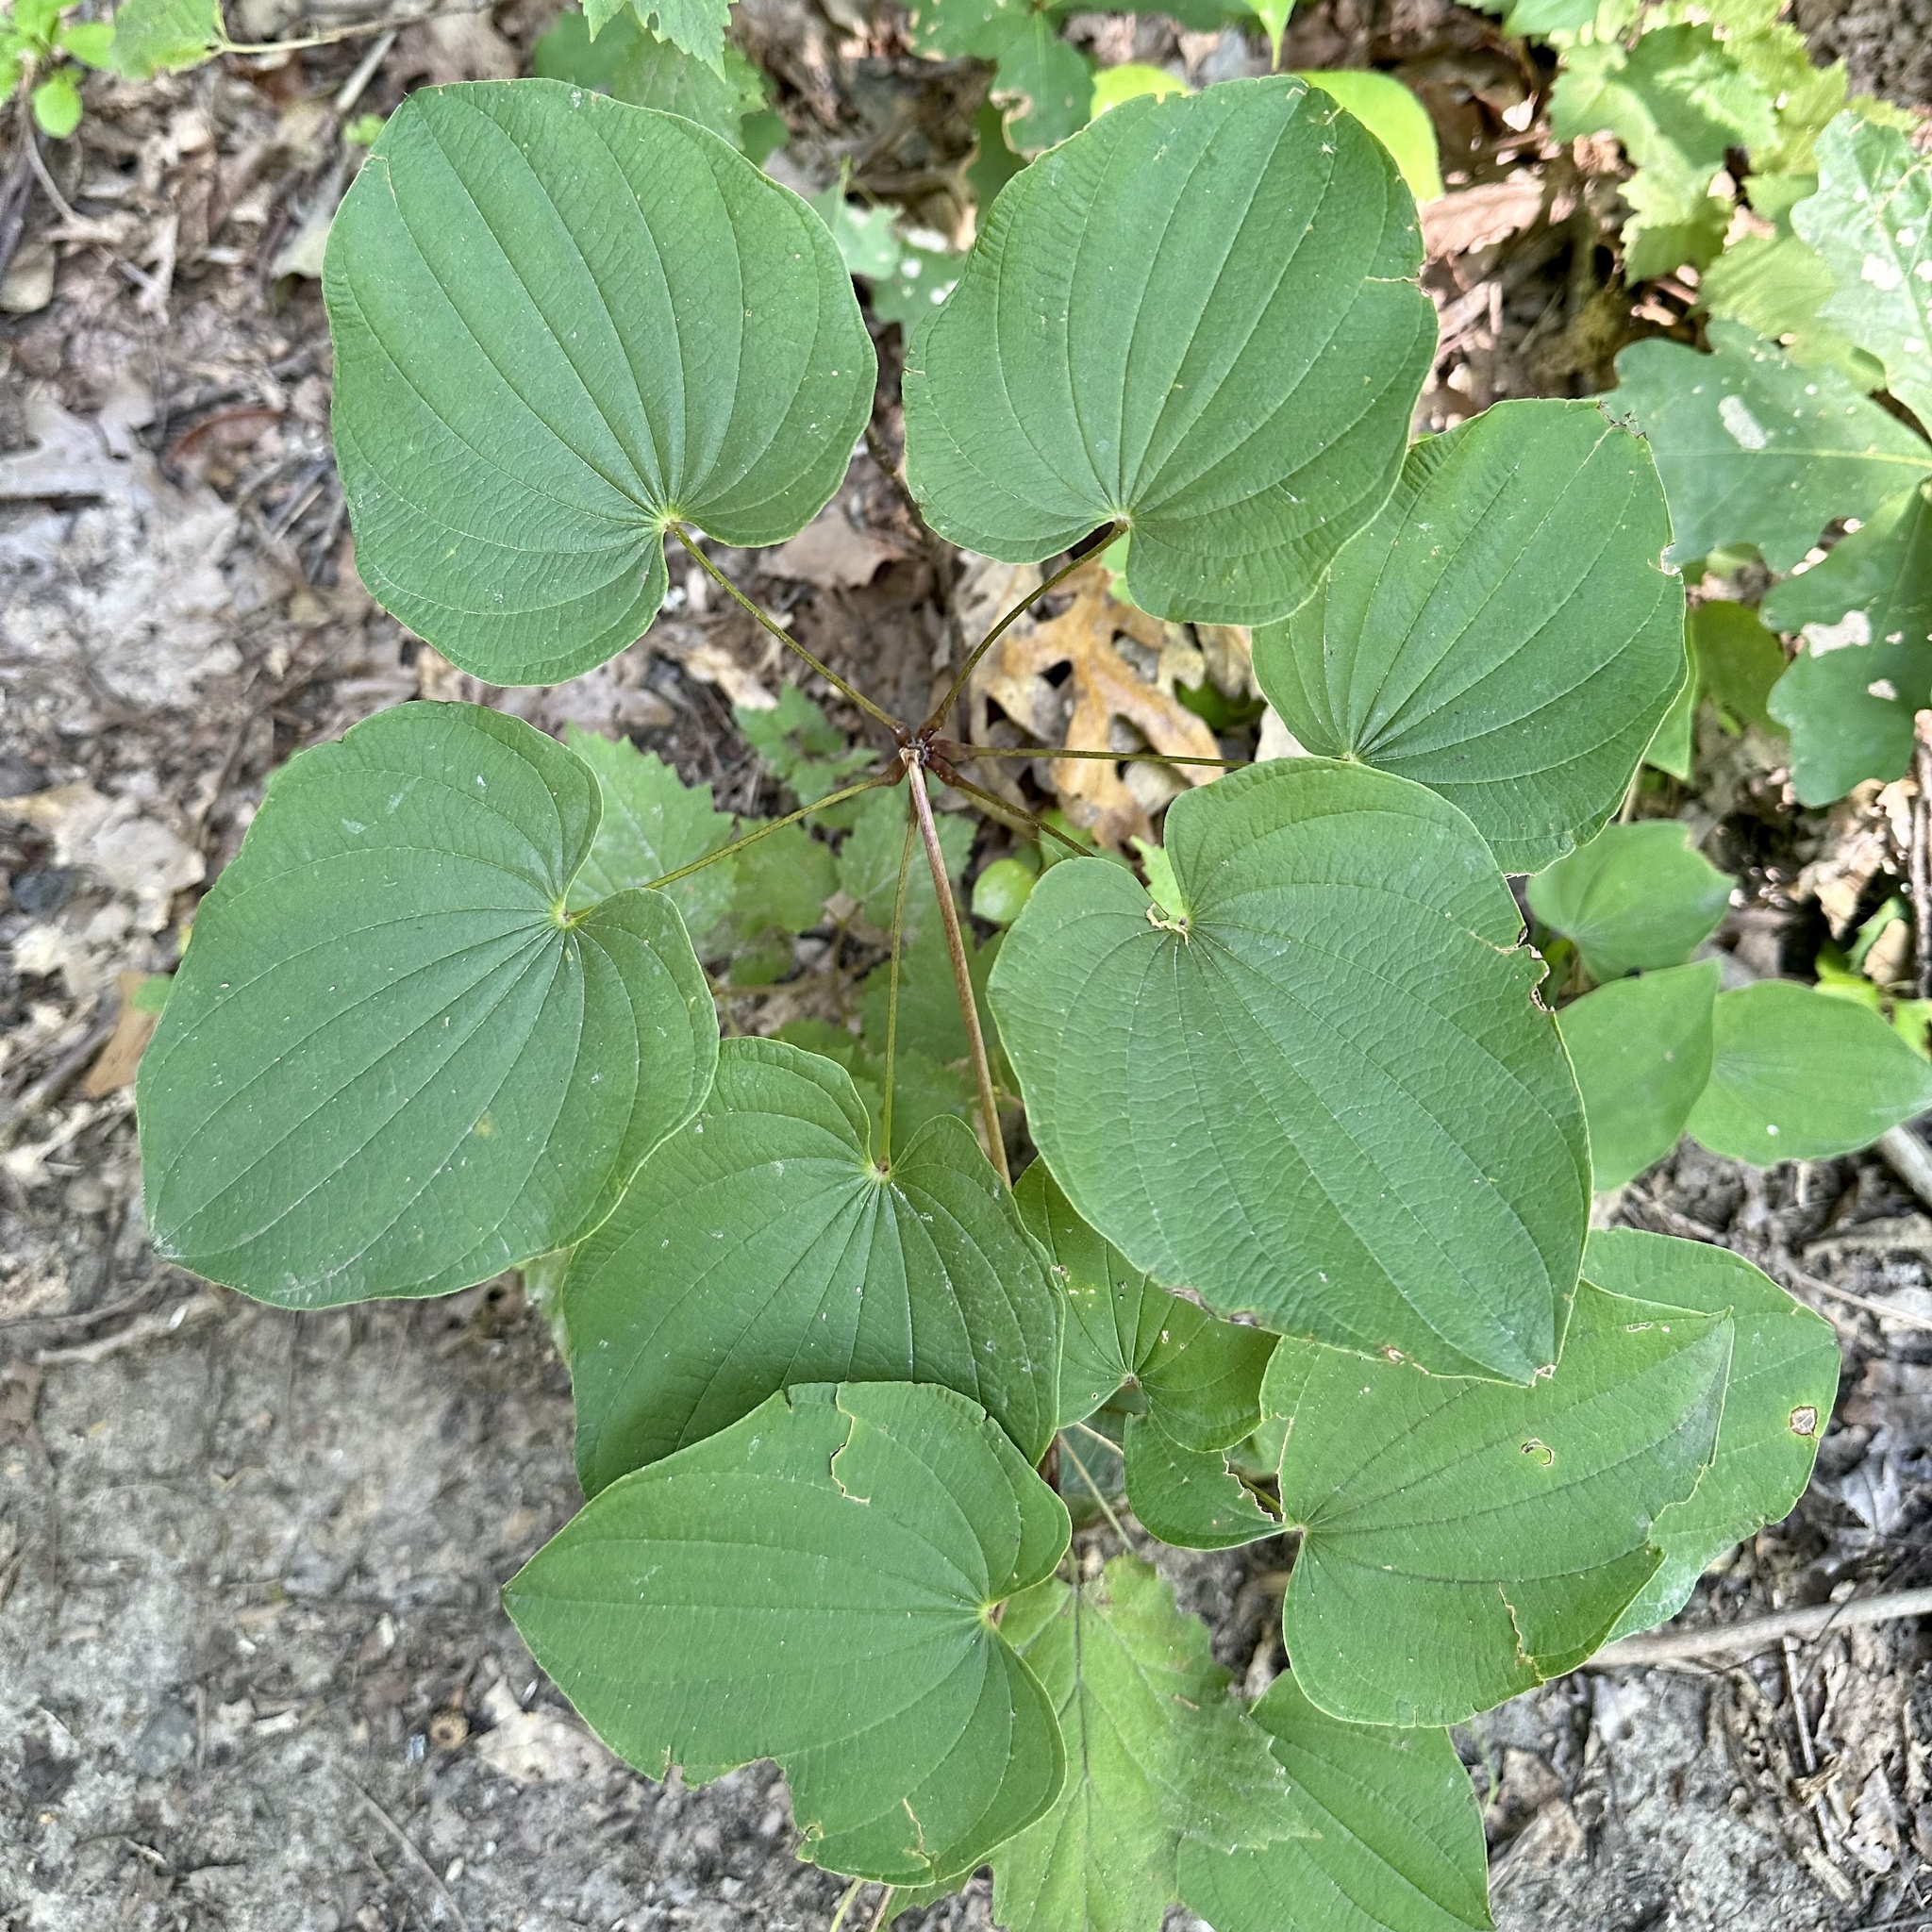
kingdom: Plantae
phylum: Tracheophyta
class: Liliopsida
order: Dioscoreales
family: Dioscoreaceae
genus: Dioscorea
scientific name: Dioscorea villosa
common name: Wild yam
